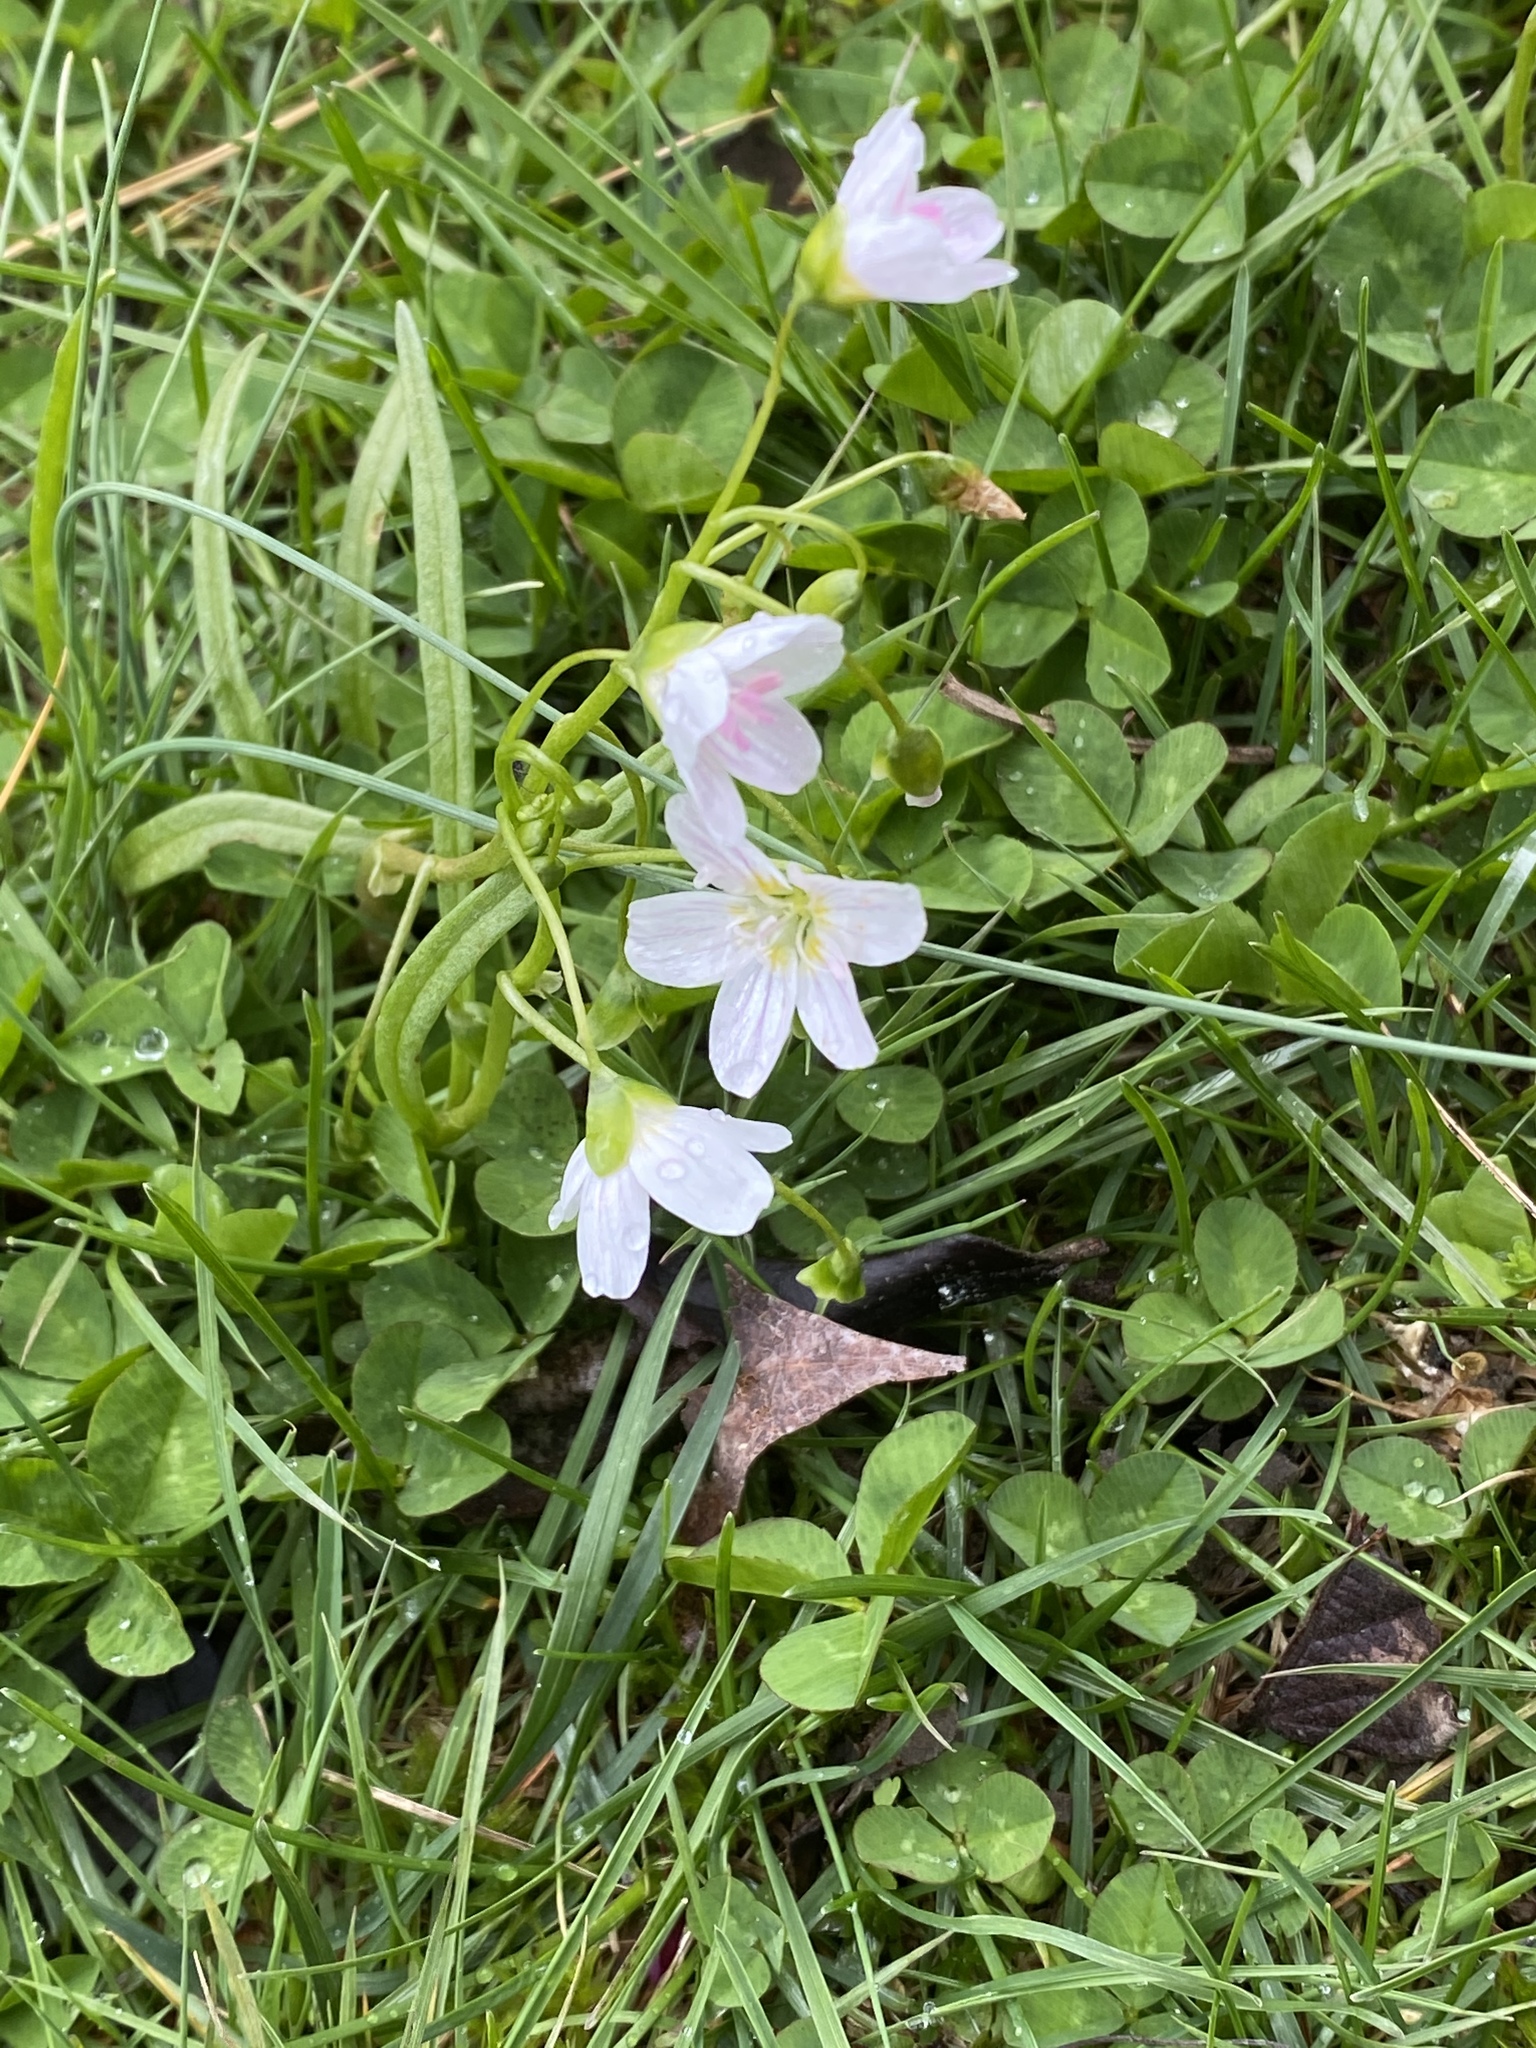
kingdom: Plantae
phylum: Tracheophyta
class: Magnoliopsida
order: Caryophyllales
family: Montiaceae
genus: Claytonia
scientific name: Claytonia virginica
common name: Virginia springbeauty
